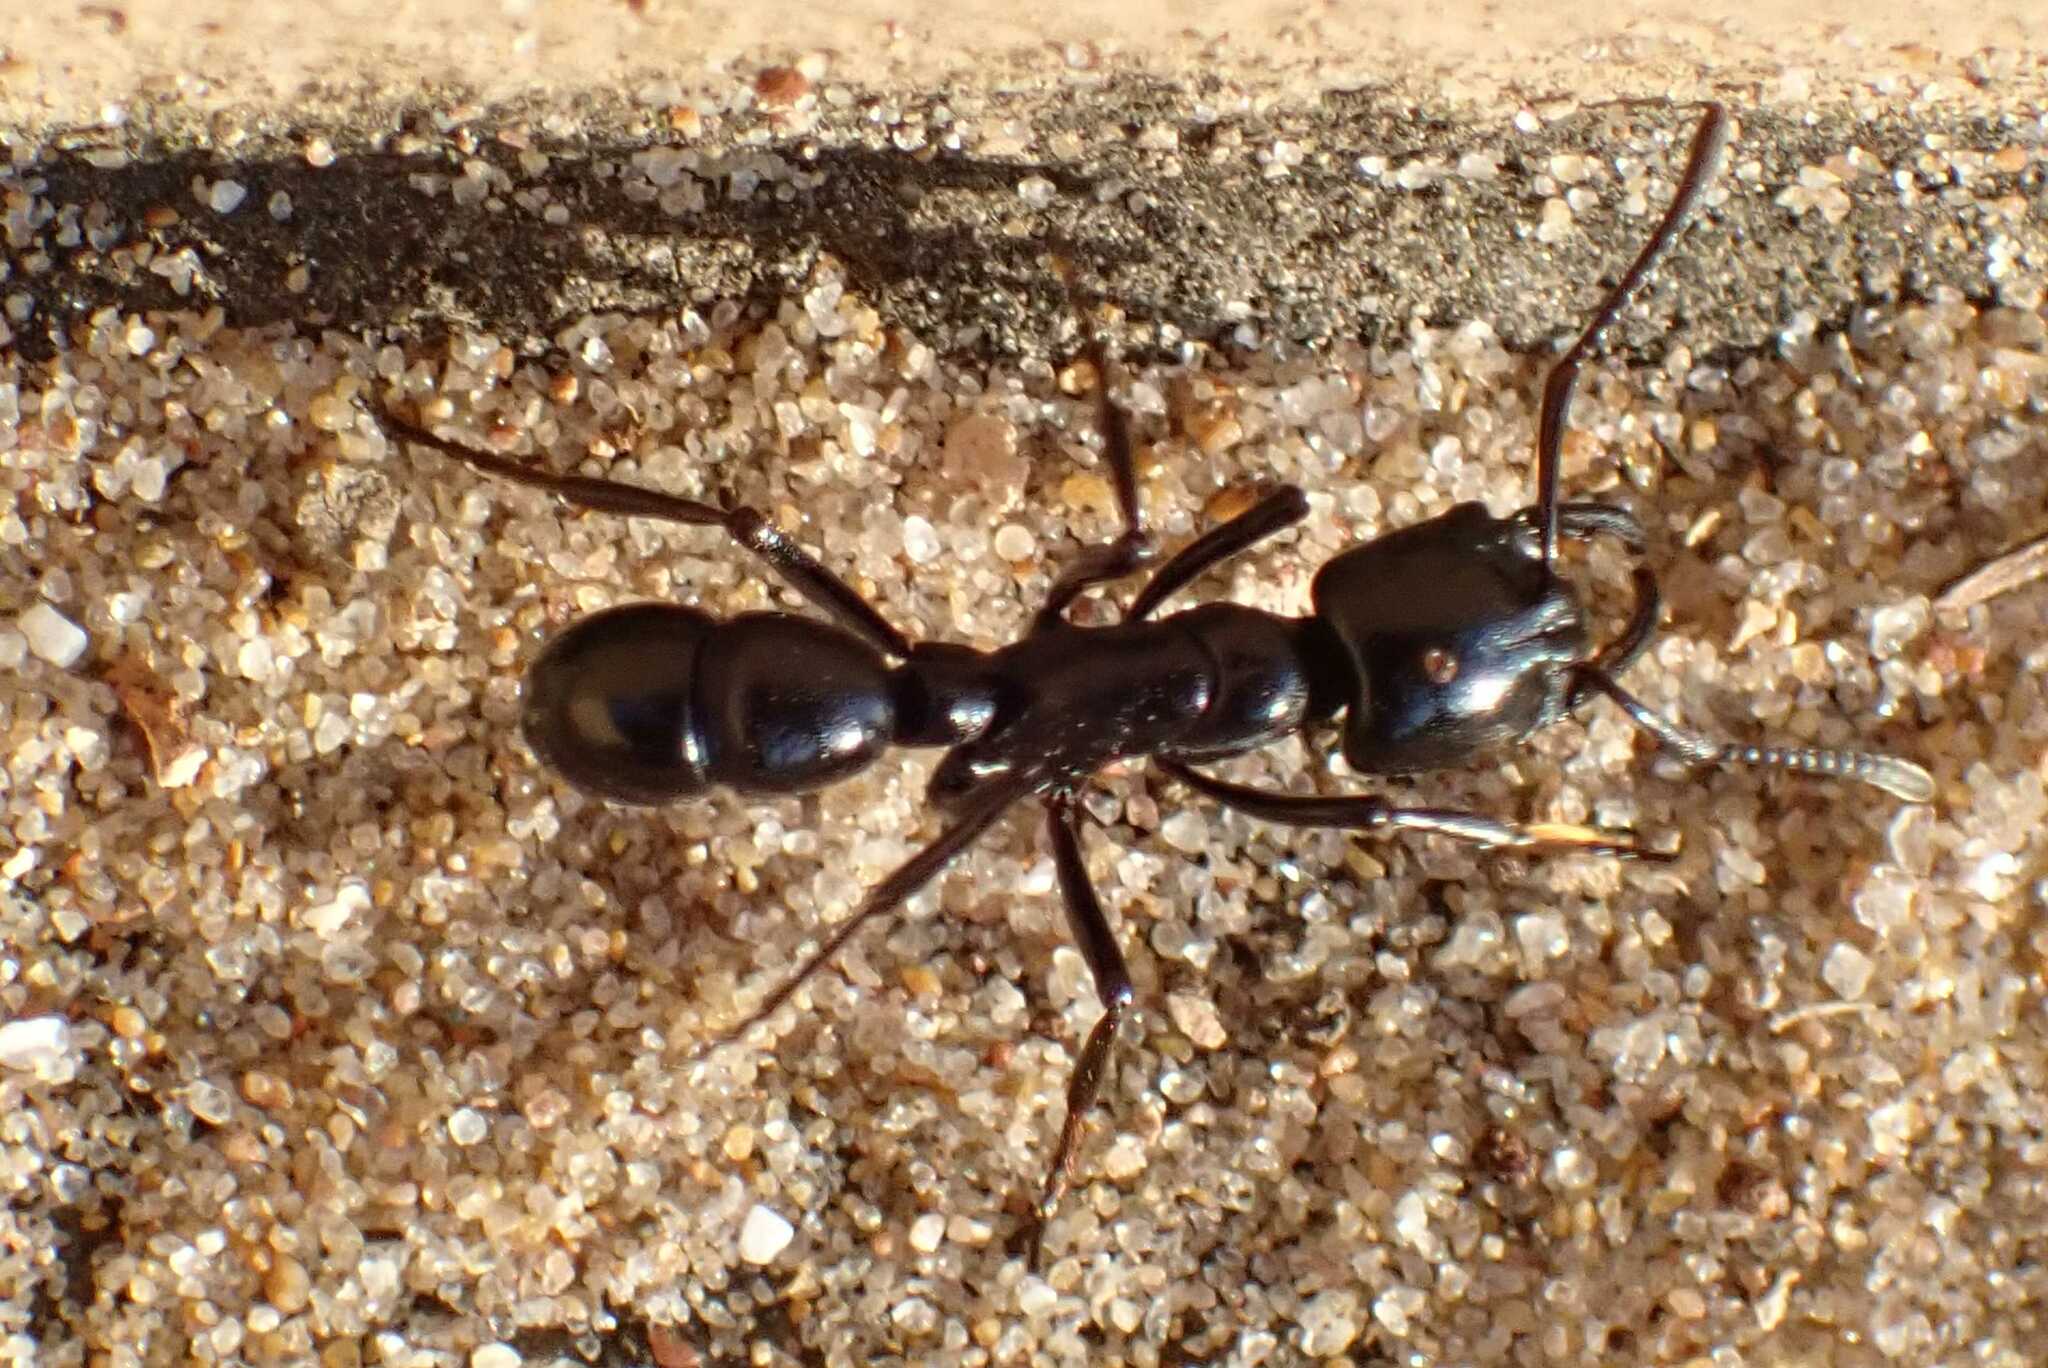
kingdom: Animalia
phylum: Arthropoda
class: Insecta
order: Hymenoptera
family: Formicidae
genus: Plectroctena
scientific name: Plectroctena mandibularis
